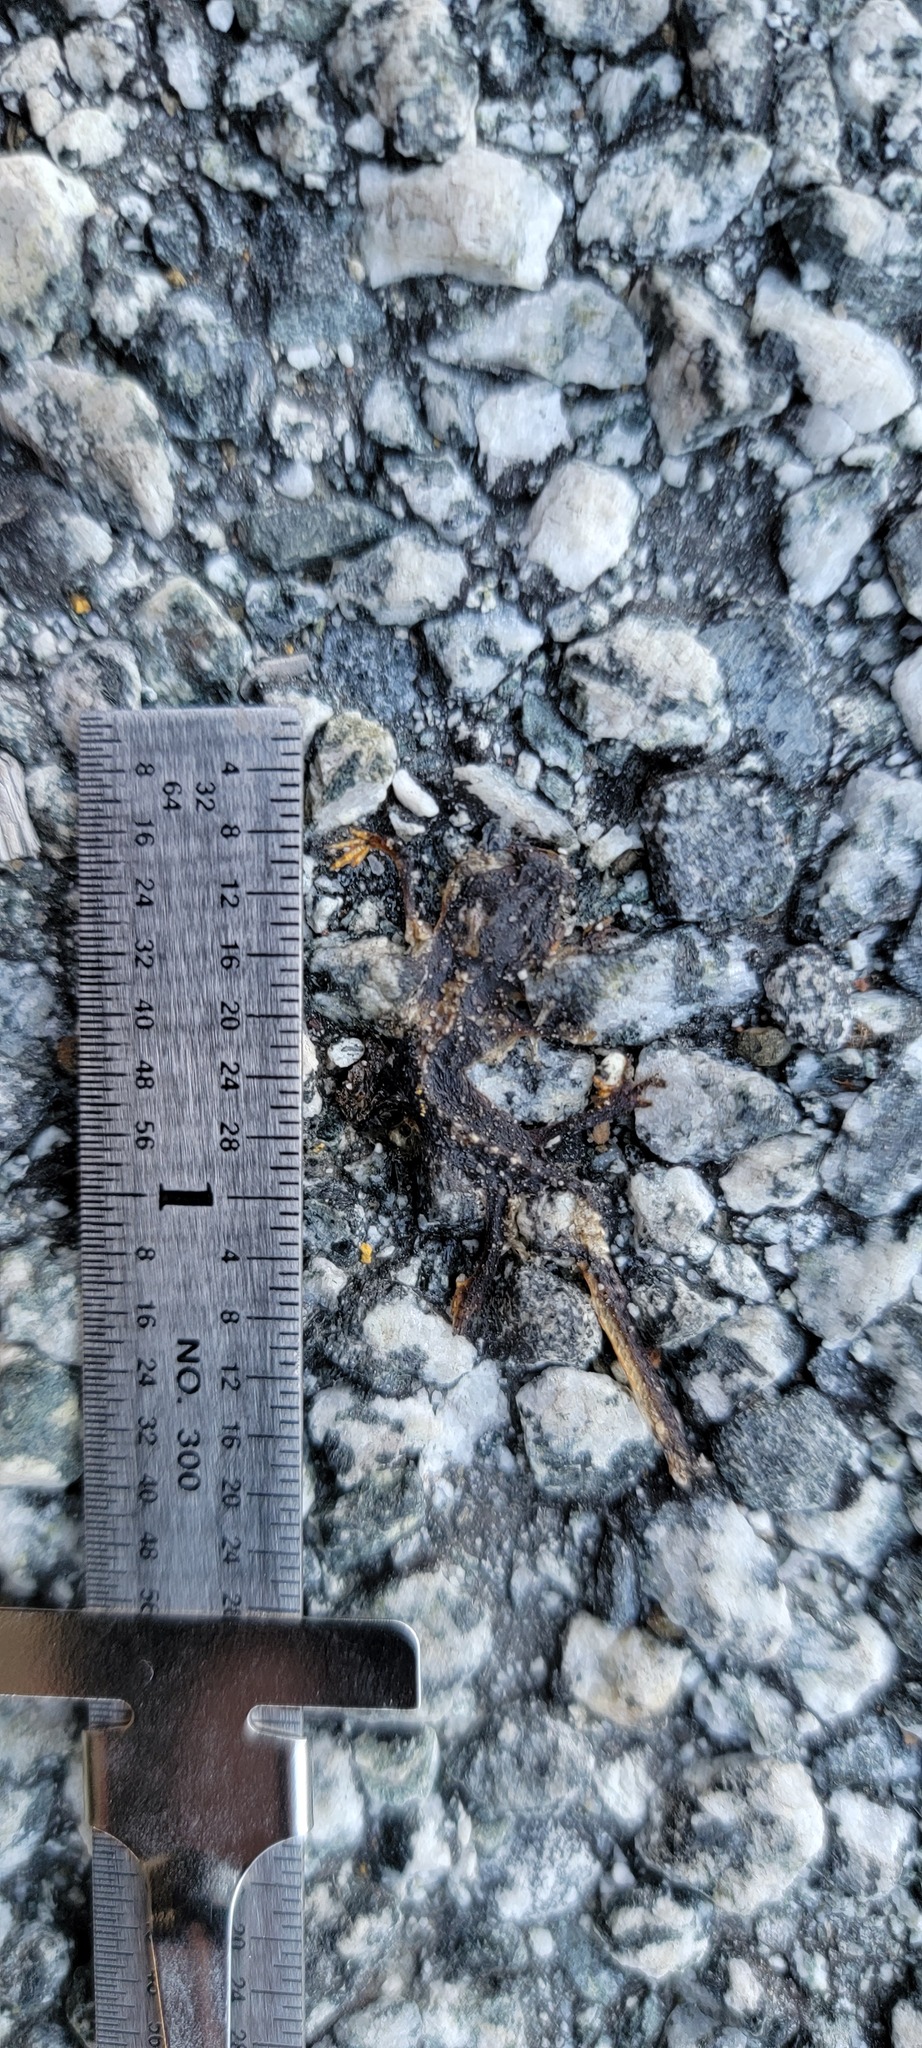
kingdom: Animalia
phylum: Chordata
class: Amphibia
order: Caudata
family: Salamandridae
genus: Taricha
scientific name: Taricha
